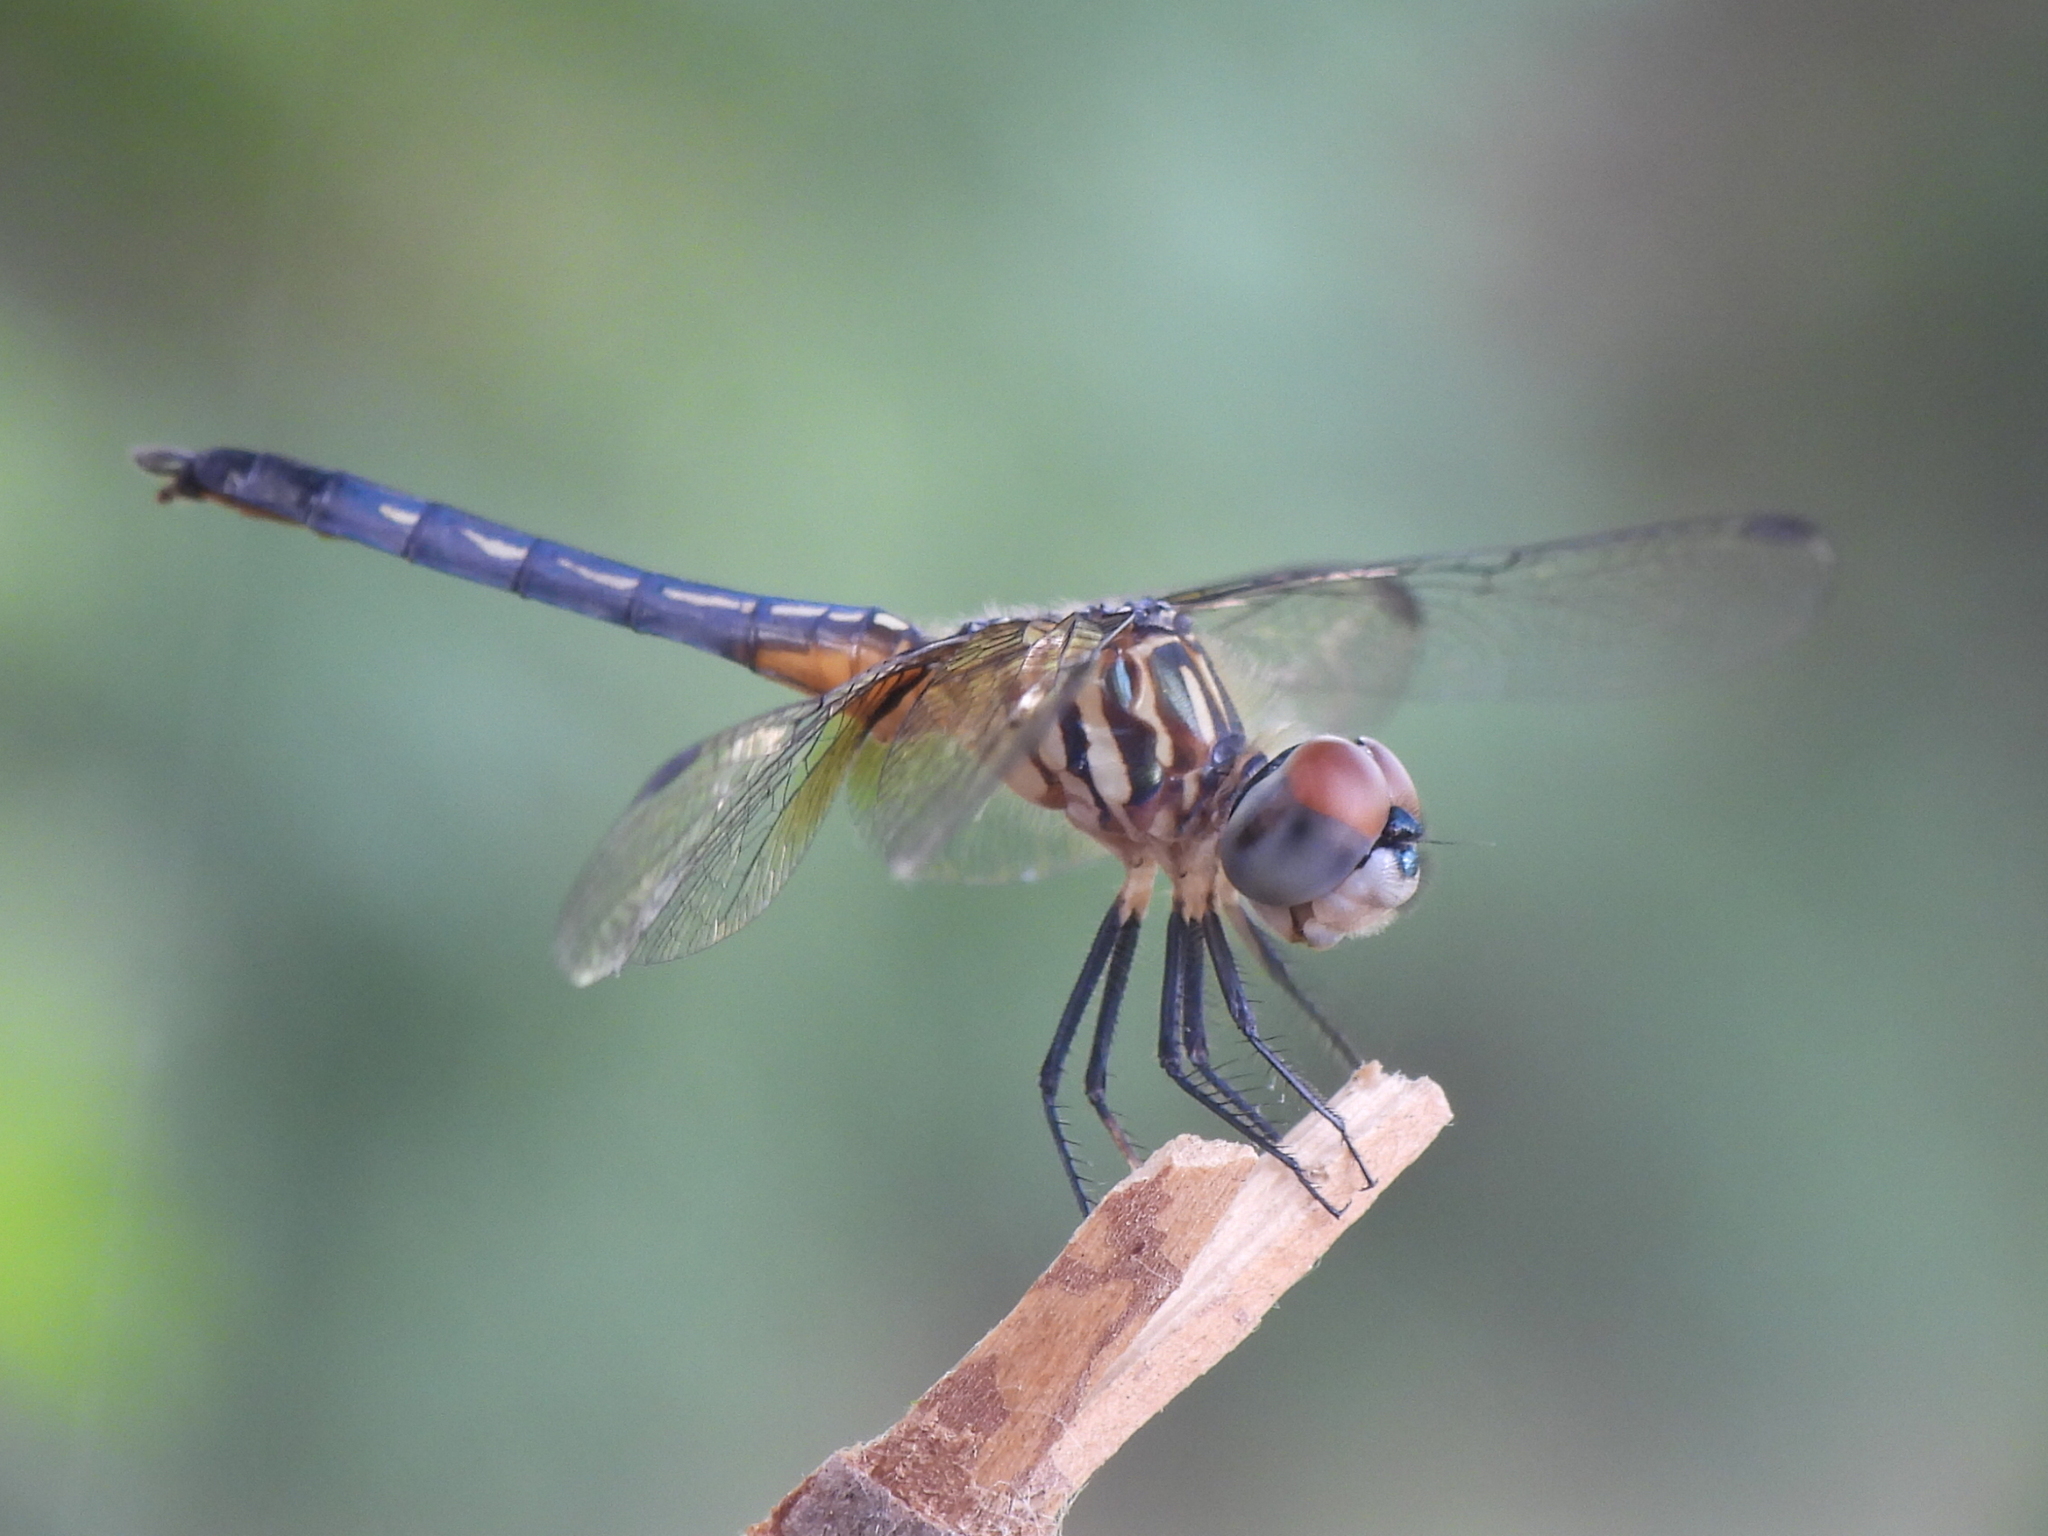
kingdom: Animalia
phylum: Arthropoda
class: Insecta
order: Odonata
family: Libellulidae
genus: Pachydiplax
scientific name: Pachydiplax longipennis
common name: Blue dasher
